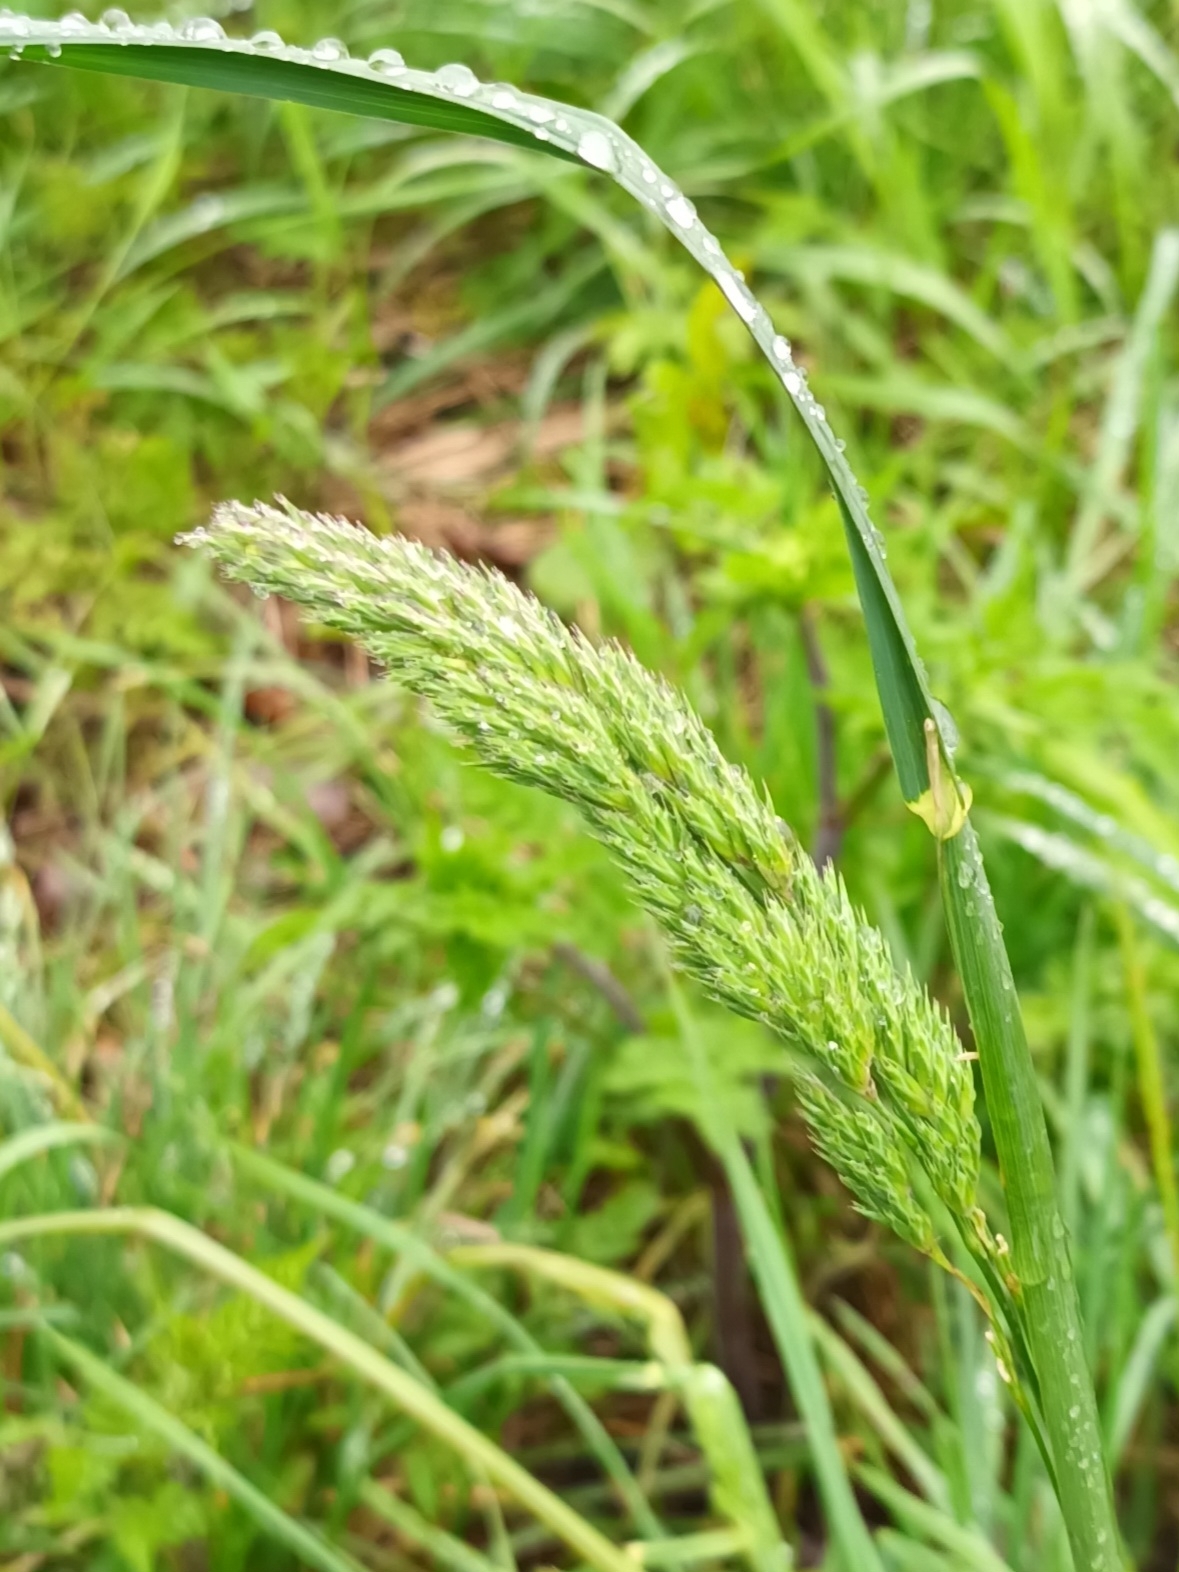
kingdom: Plantae
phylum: Tracheophyta
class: Liliopsida
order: Poales
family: Poaceae
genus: Dactylis
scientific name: Dactylis glomerata
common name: Orchardgrass
